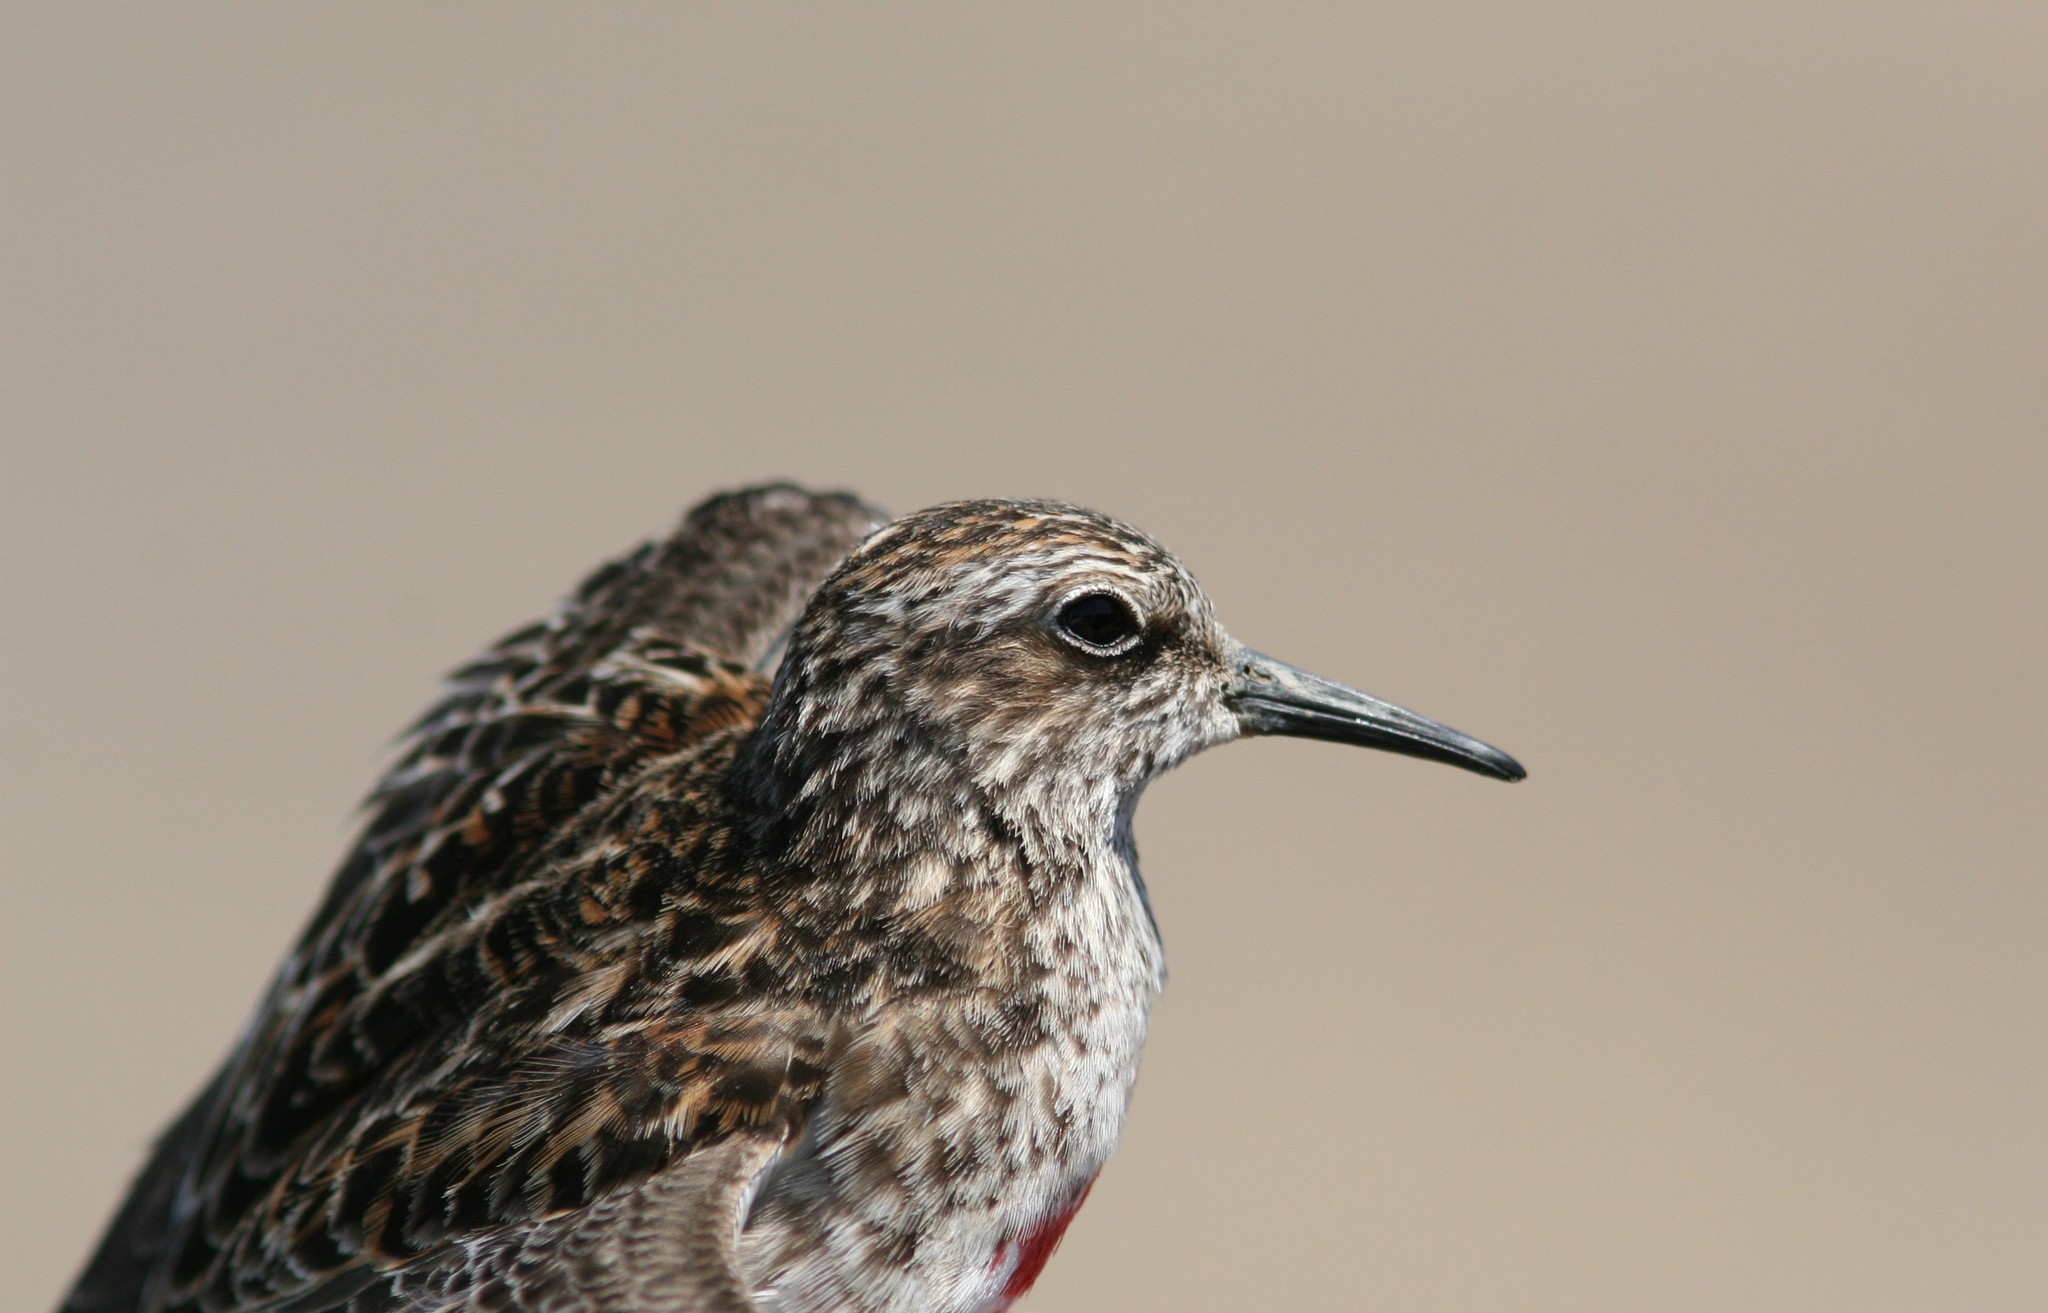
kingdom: Animalia
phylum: Chordata
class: Aves
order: Charadriiformes
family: Scolopacidae
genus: Calidris
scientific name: Calidris minutilla
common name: Least sandpiper
